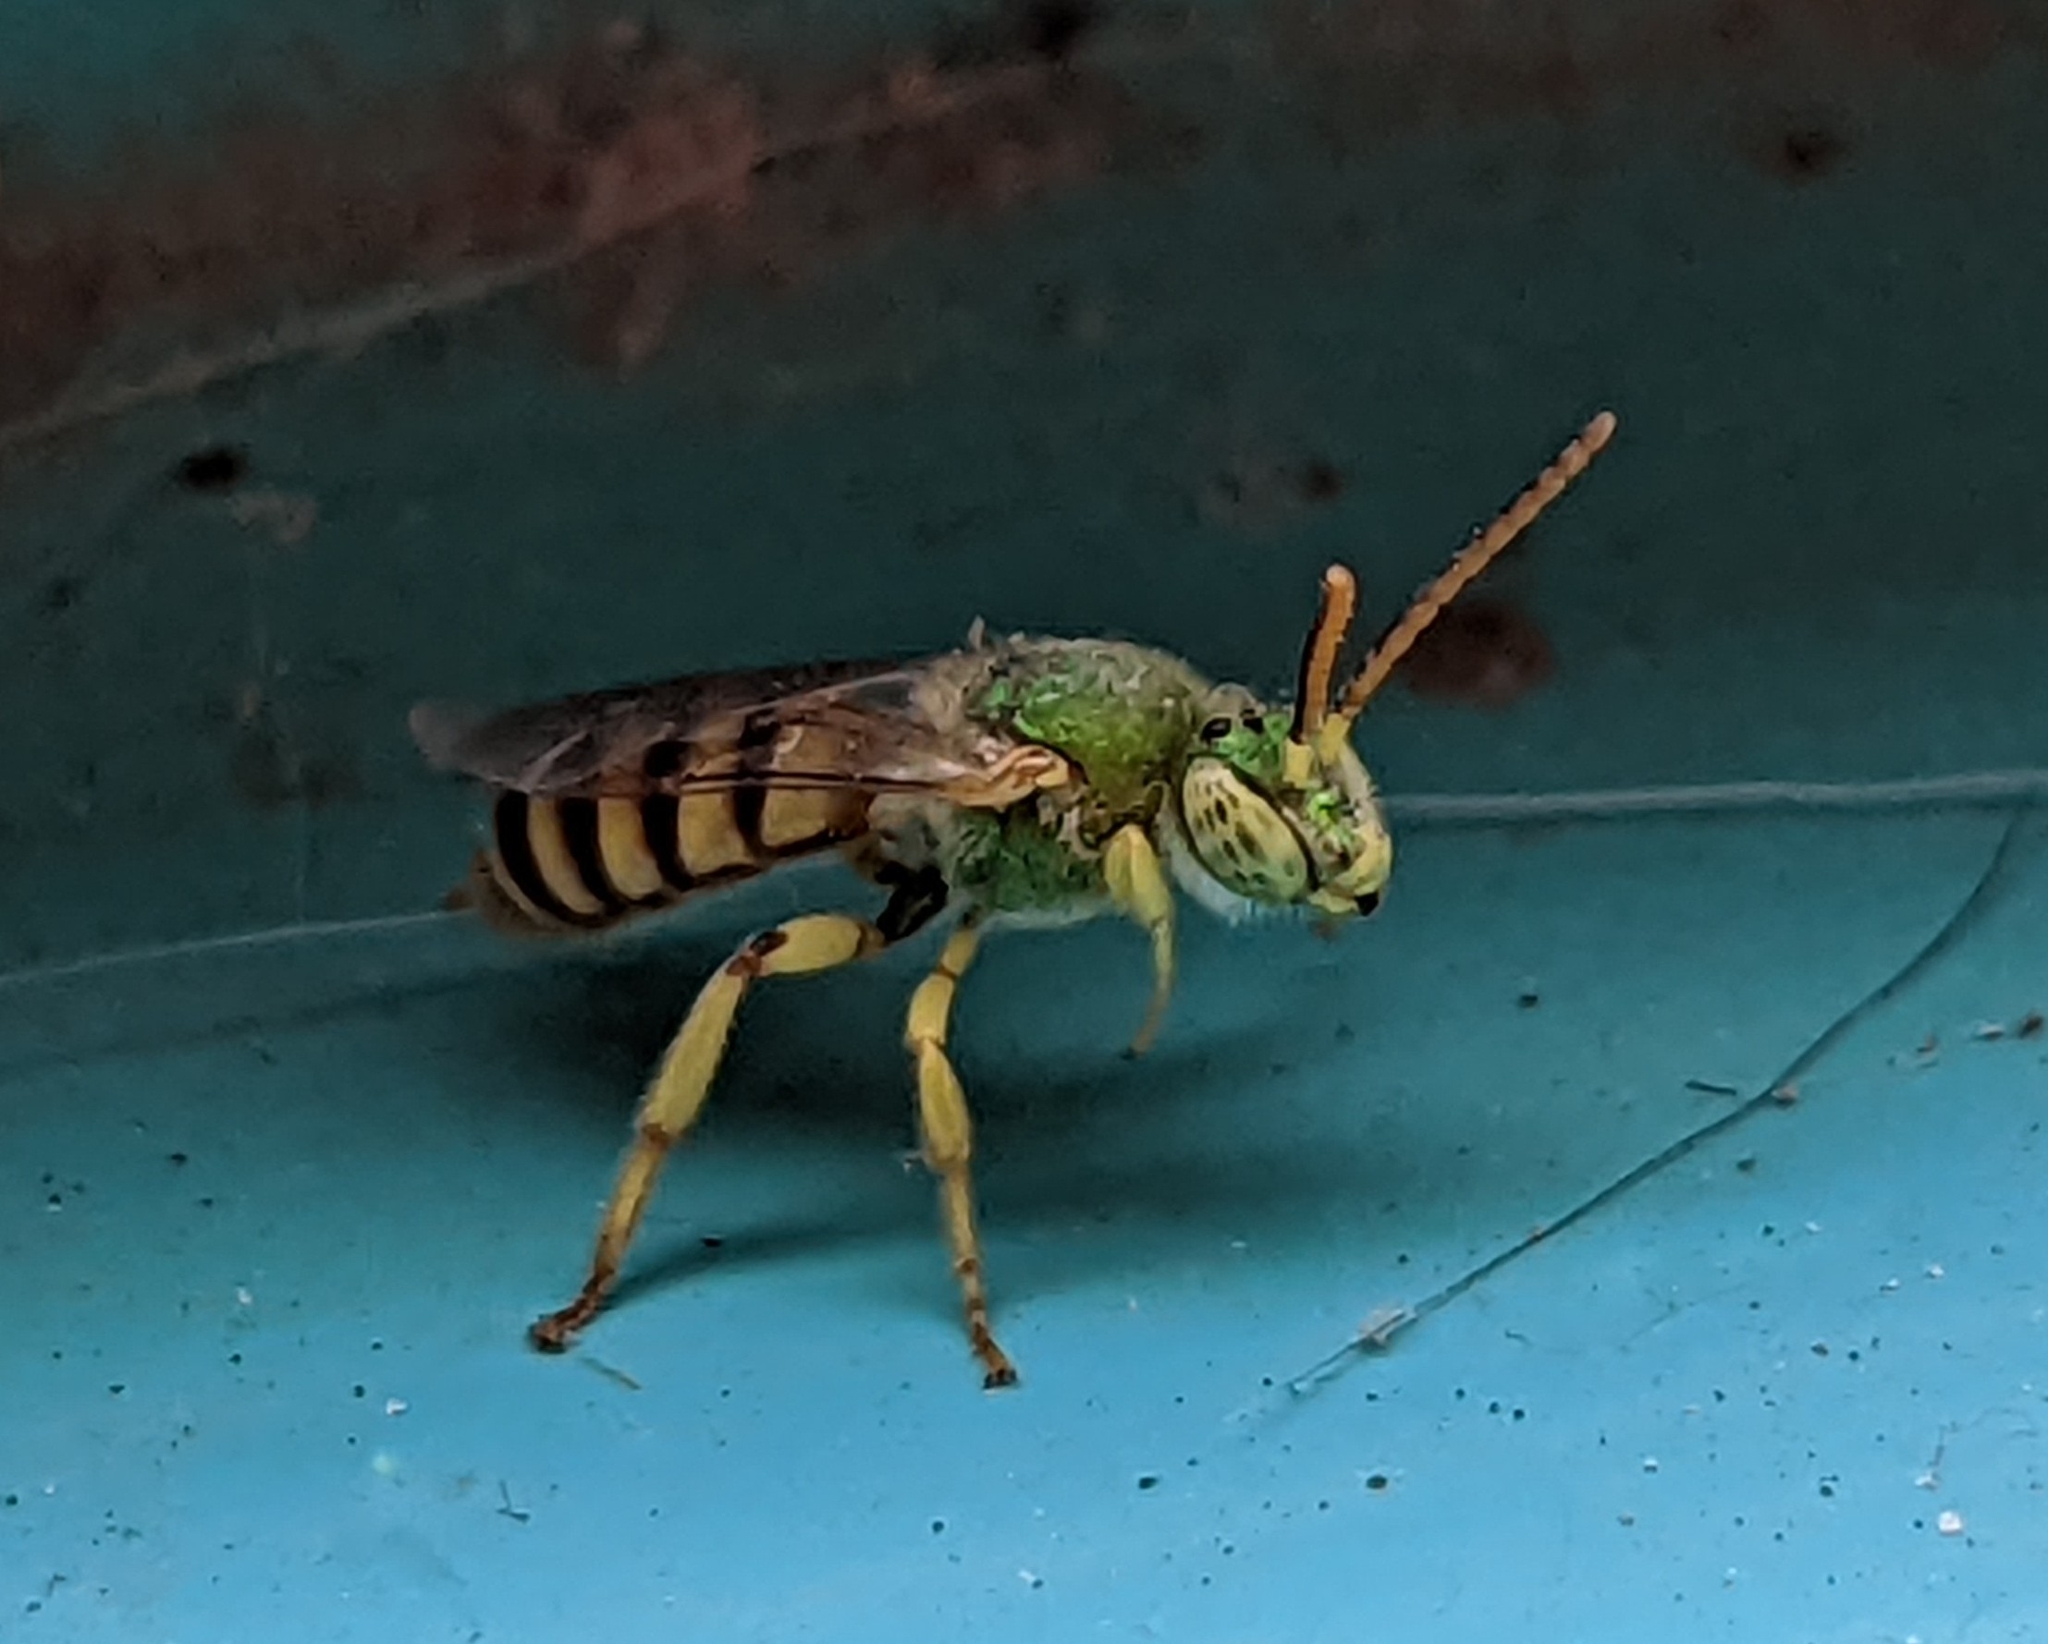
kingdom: Animalia
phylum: Arthropoda
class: Insecta
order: Hymenoptera
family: Halictidae
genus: Agapostemon
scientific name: Agapostemon melliventris
